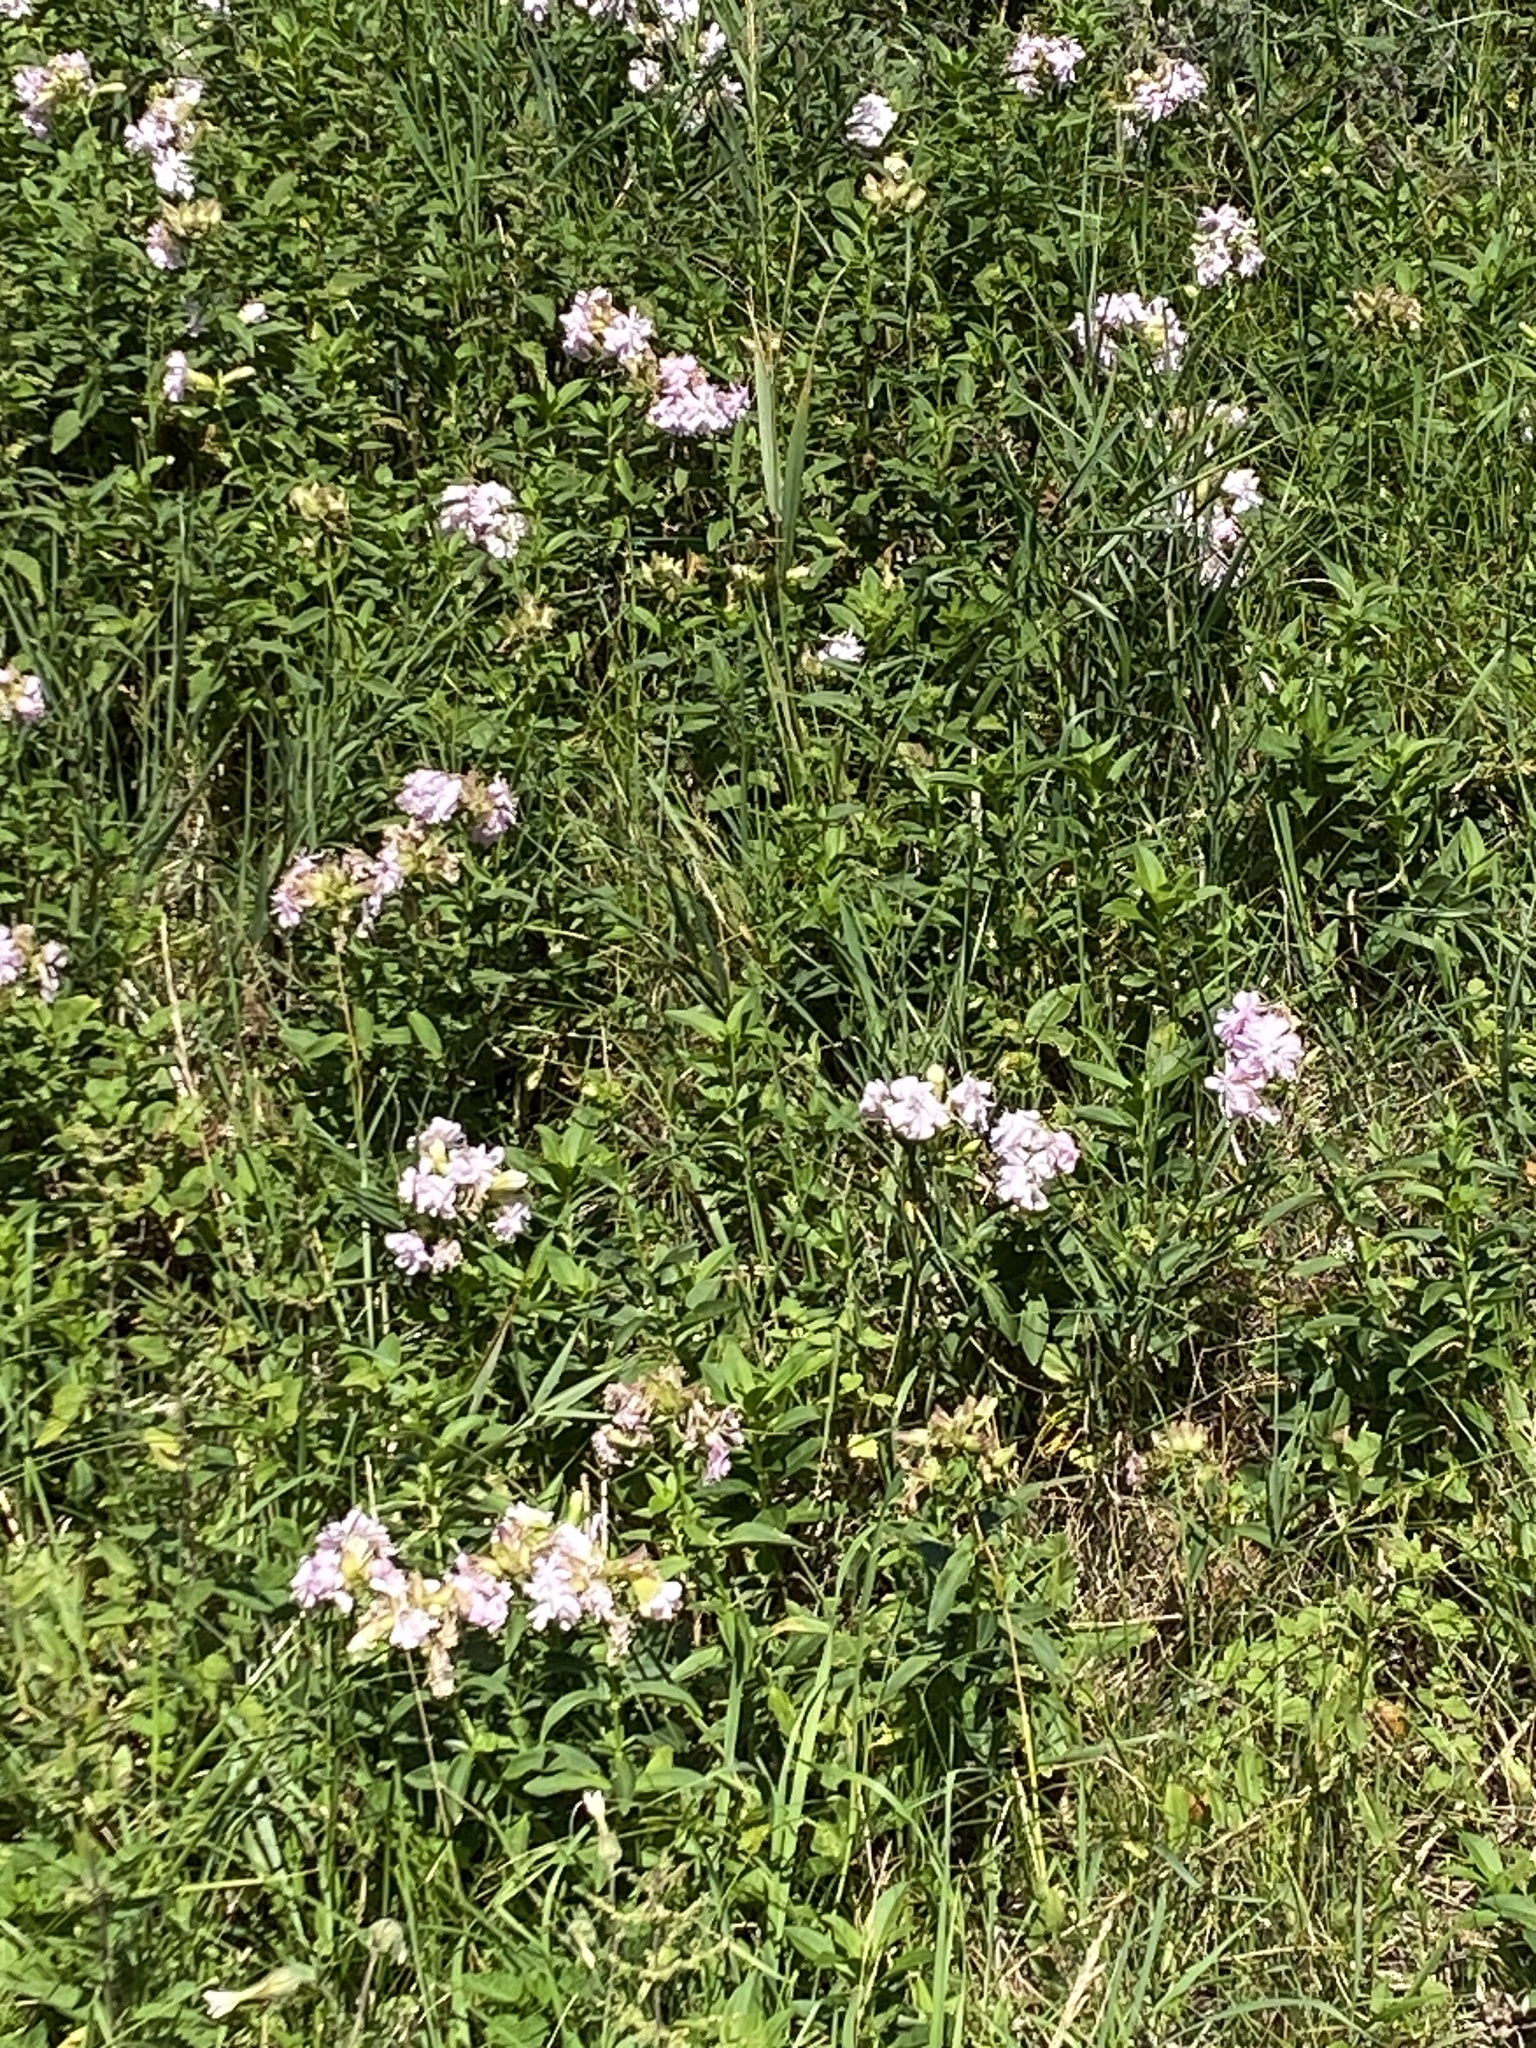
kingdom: Plantae
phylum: Tracheophyta
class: Magnoliopsida
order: Caryophyllales
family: Caryophyllaceae
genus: Saponaria
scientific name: Saponaria officinalis
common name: Soapwort
